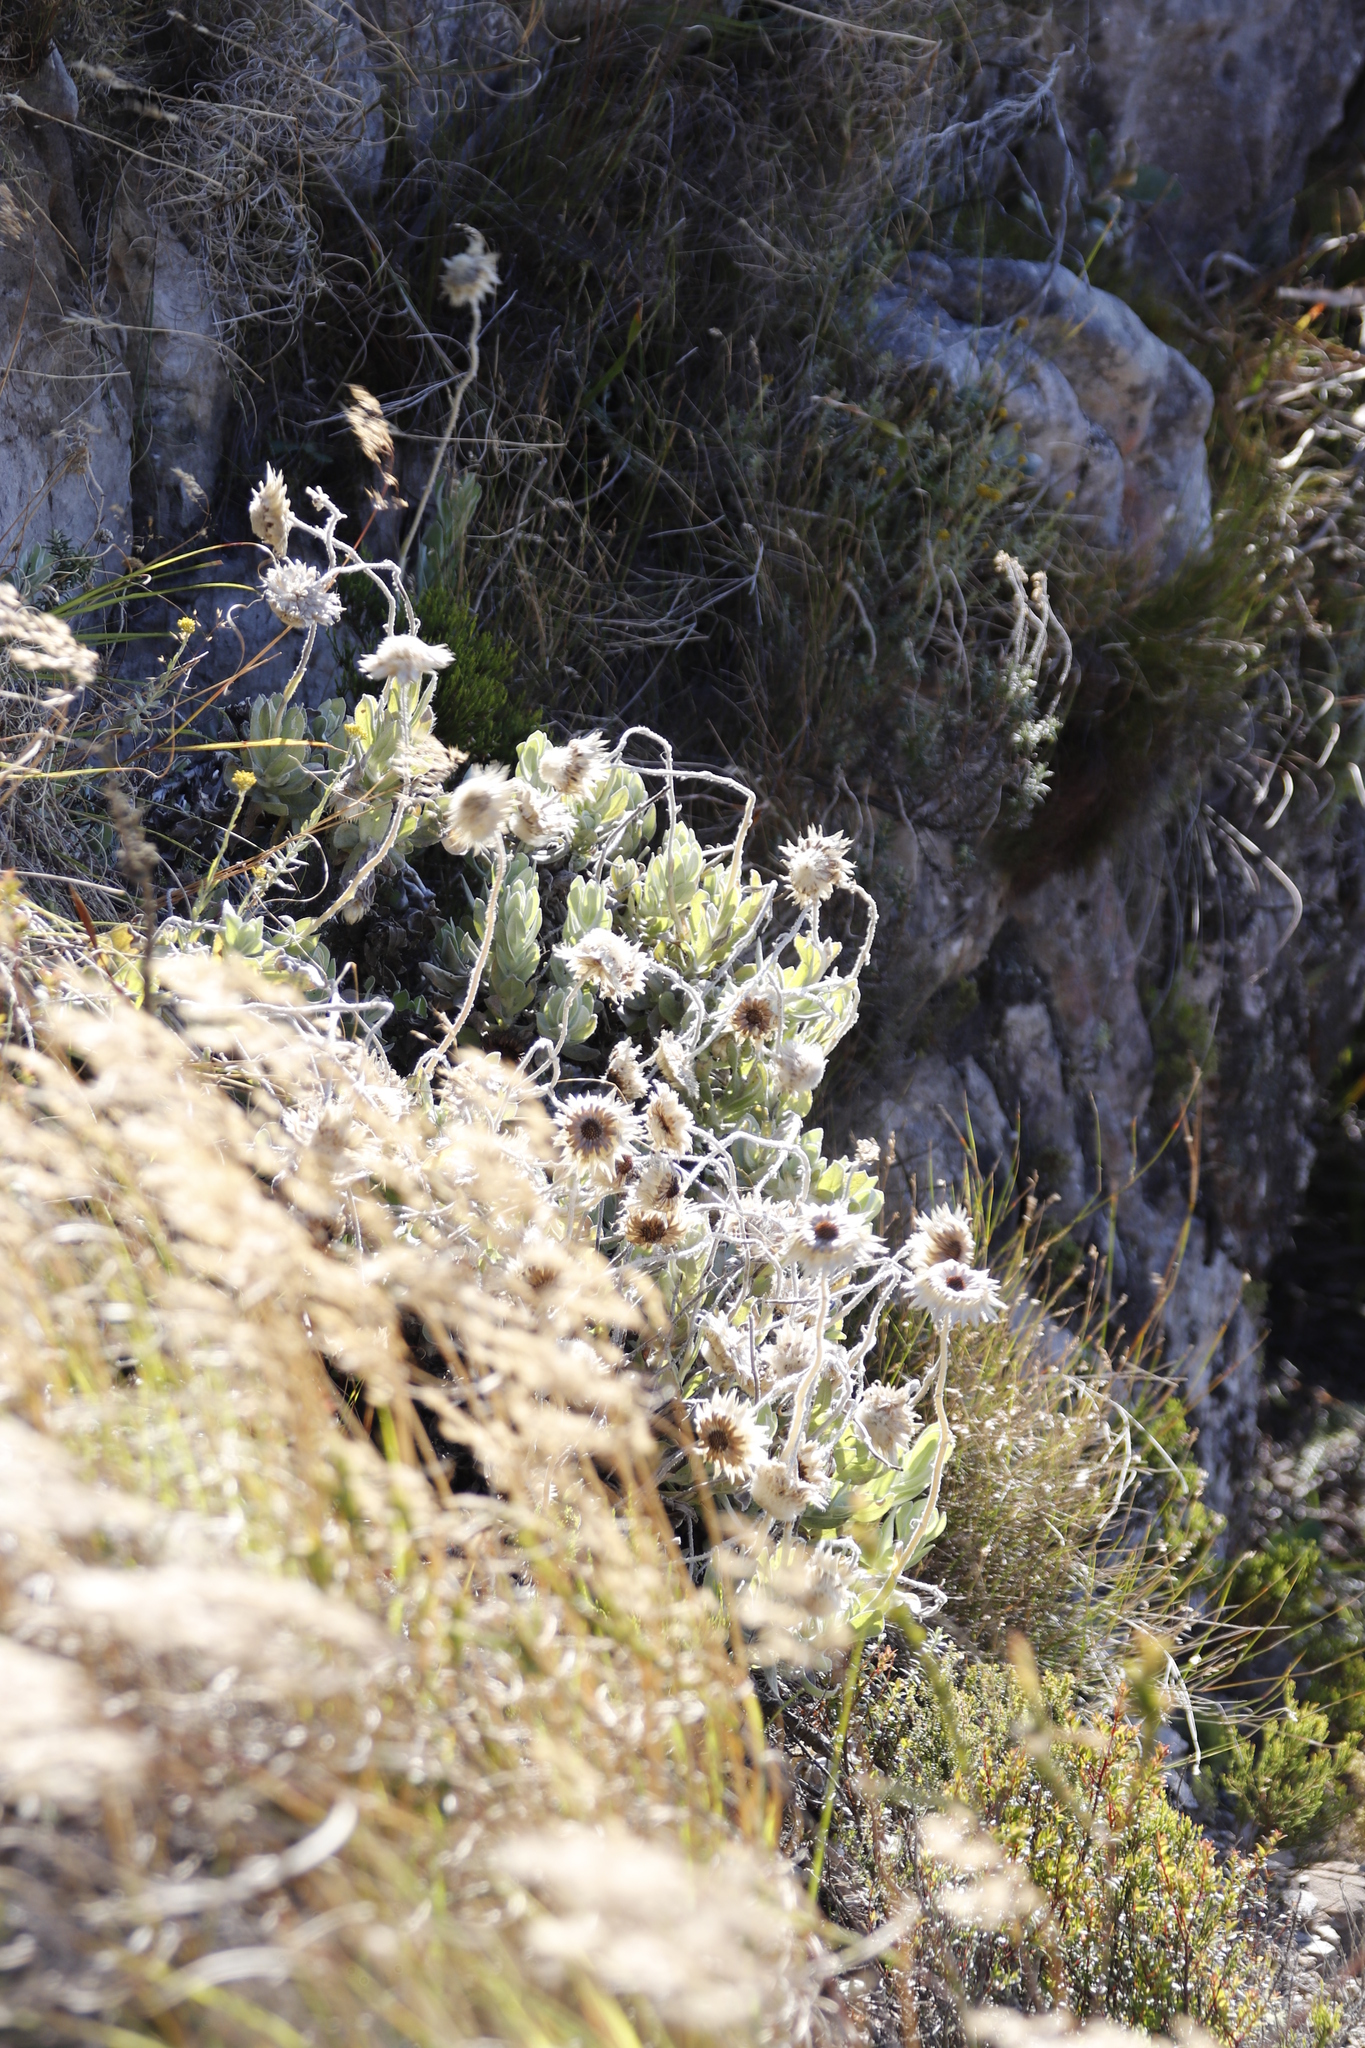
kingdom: Plantae
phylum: Tracheophyta
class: Magnoliopsida
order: Asterales
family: Asteraceae
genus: Syncarpha
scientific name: Syncarpha speciosissima
